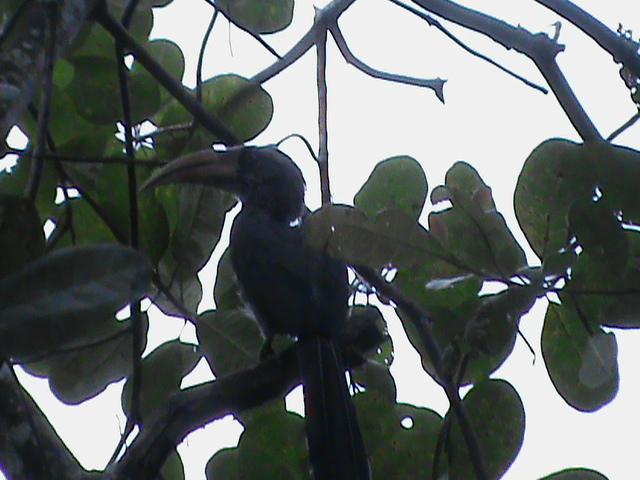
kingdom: Animalia
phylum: Chordata
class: Aves
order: Bucerotiformes
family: Bucerotidae
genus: Ocyceros
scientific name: Ocyceros griseus
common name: Malabar grey hornbill
